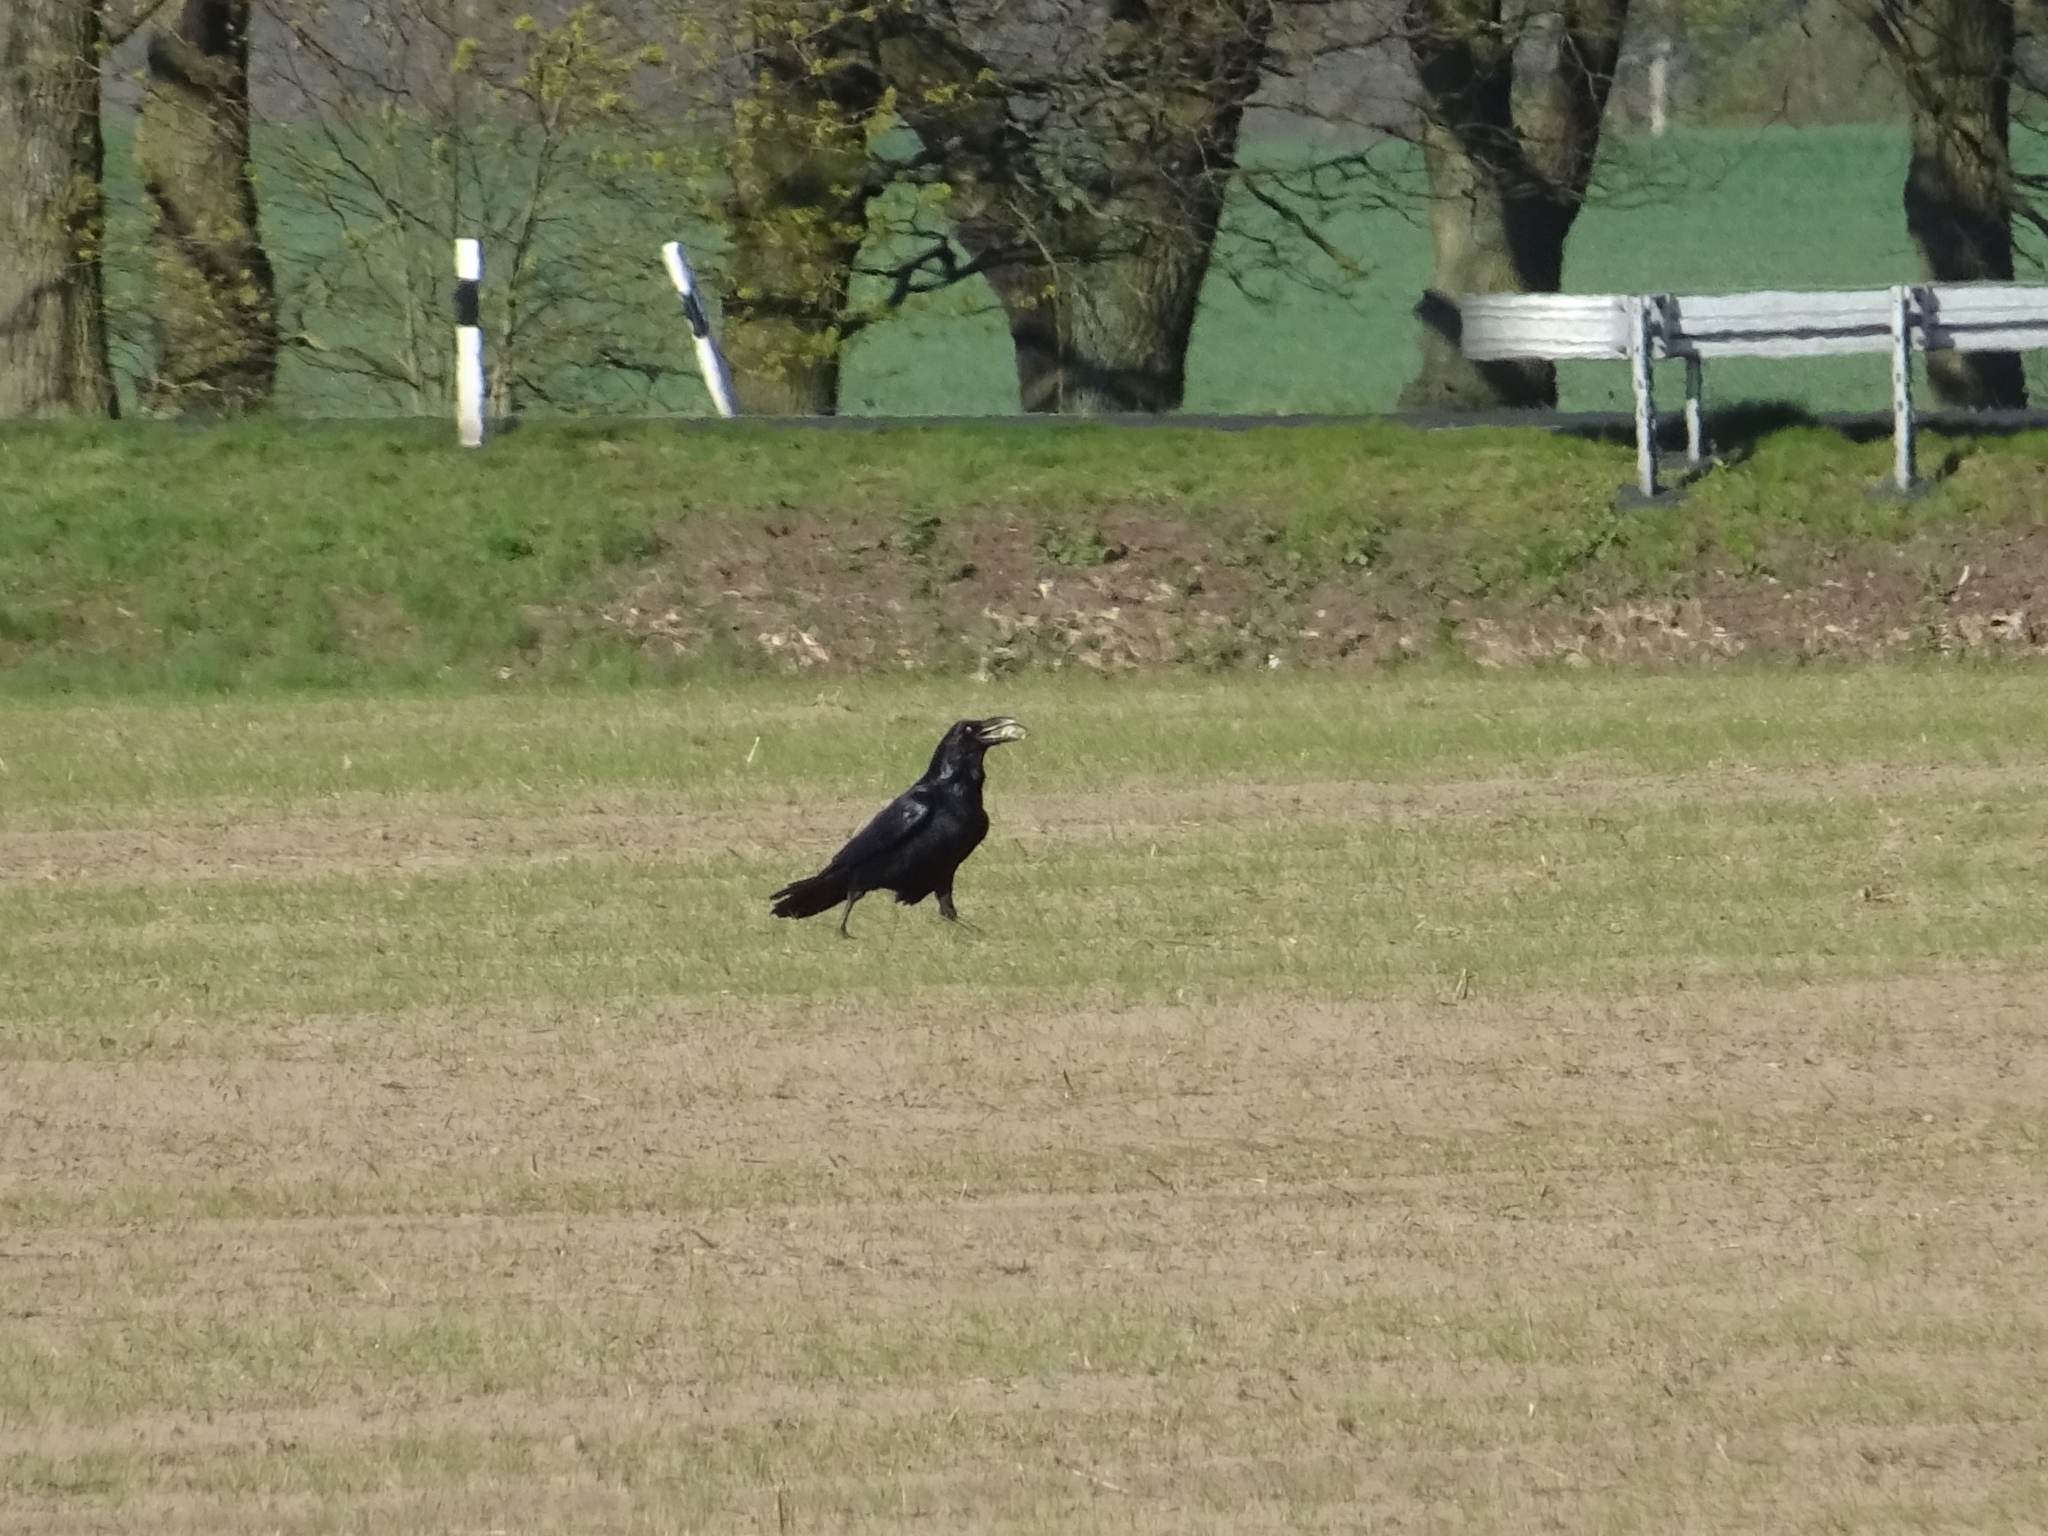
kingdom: Animalia
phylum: Chordata
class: Aves
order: Passeriformes
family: Corvidae
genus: Corvus
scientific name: Corvus corax
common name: Common raven
